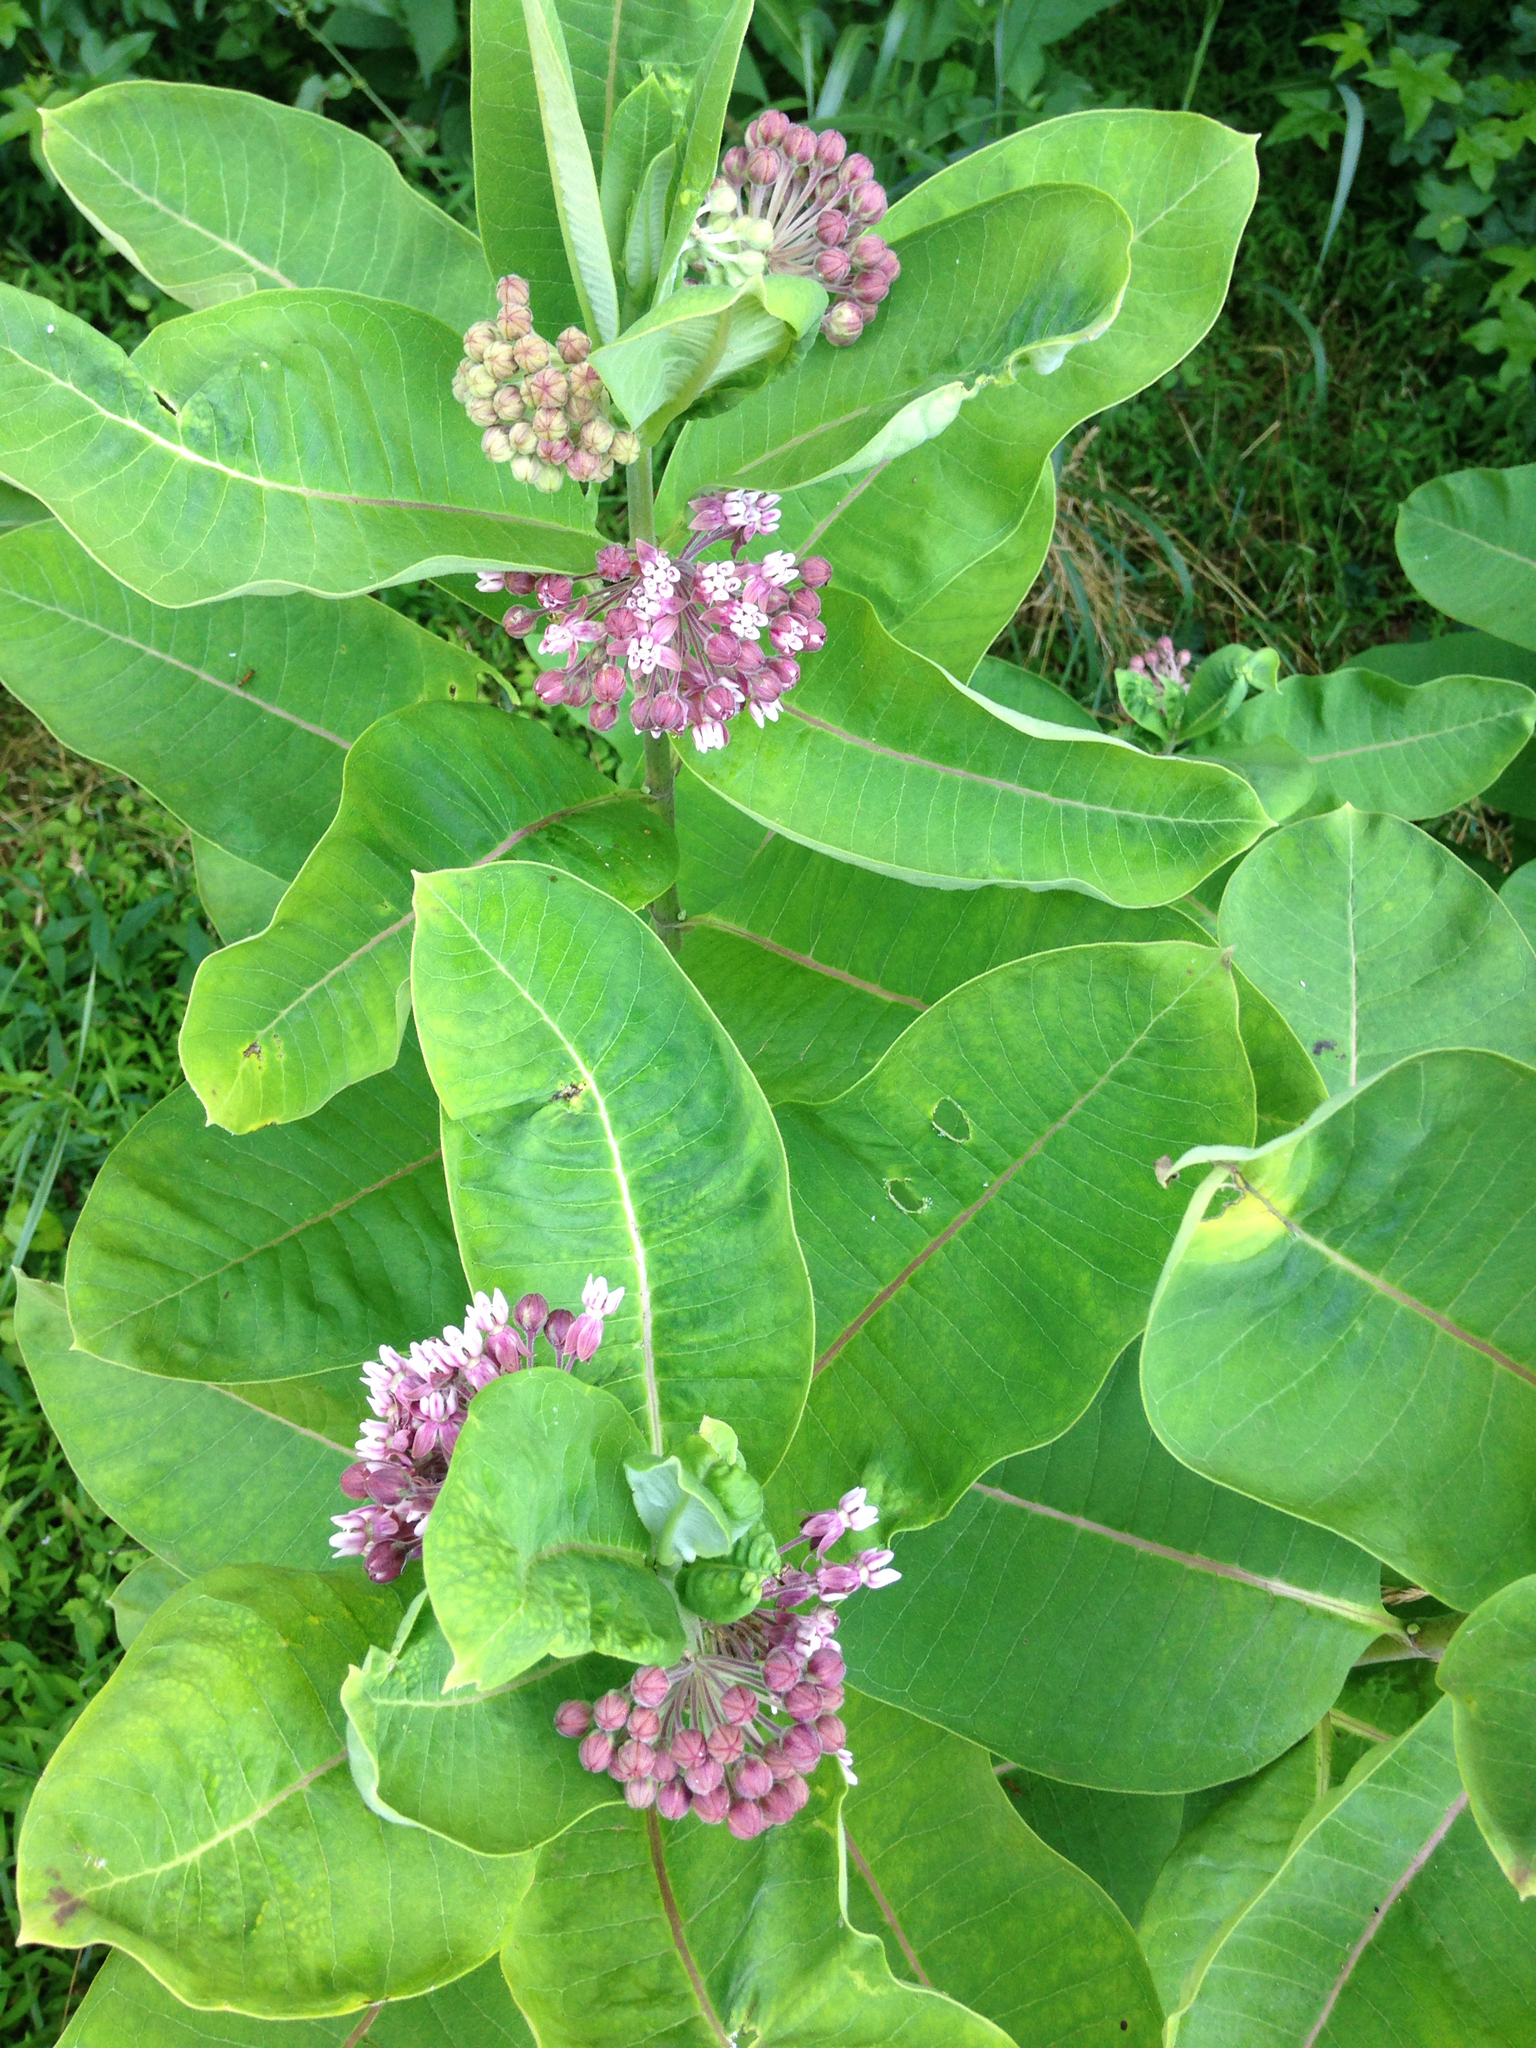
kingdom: Plantae
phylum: Tracheophyta
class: Magnoliopsida
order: Gentianales
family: Apocynaceae
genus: Asclepias
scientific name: Asclepias syriaca
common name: Common milkweed
